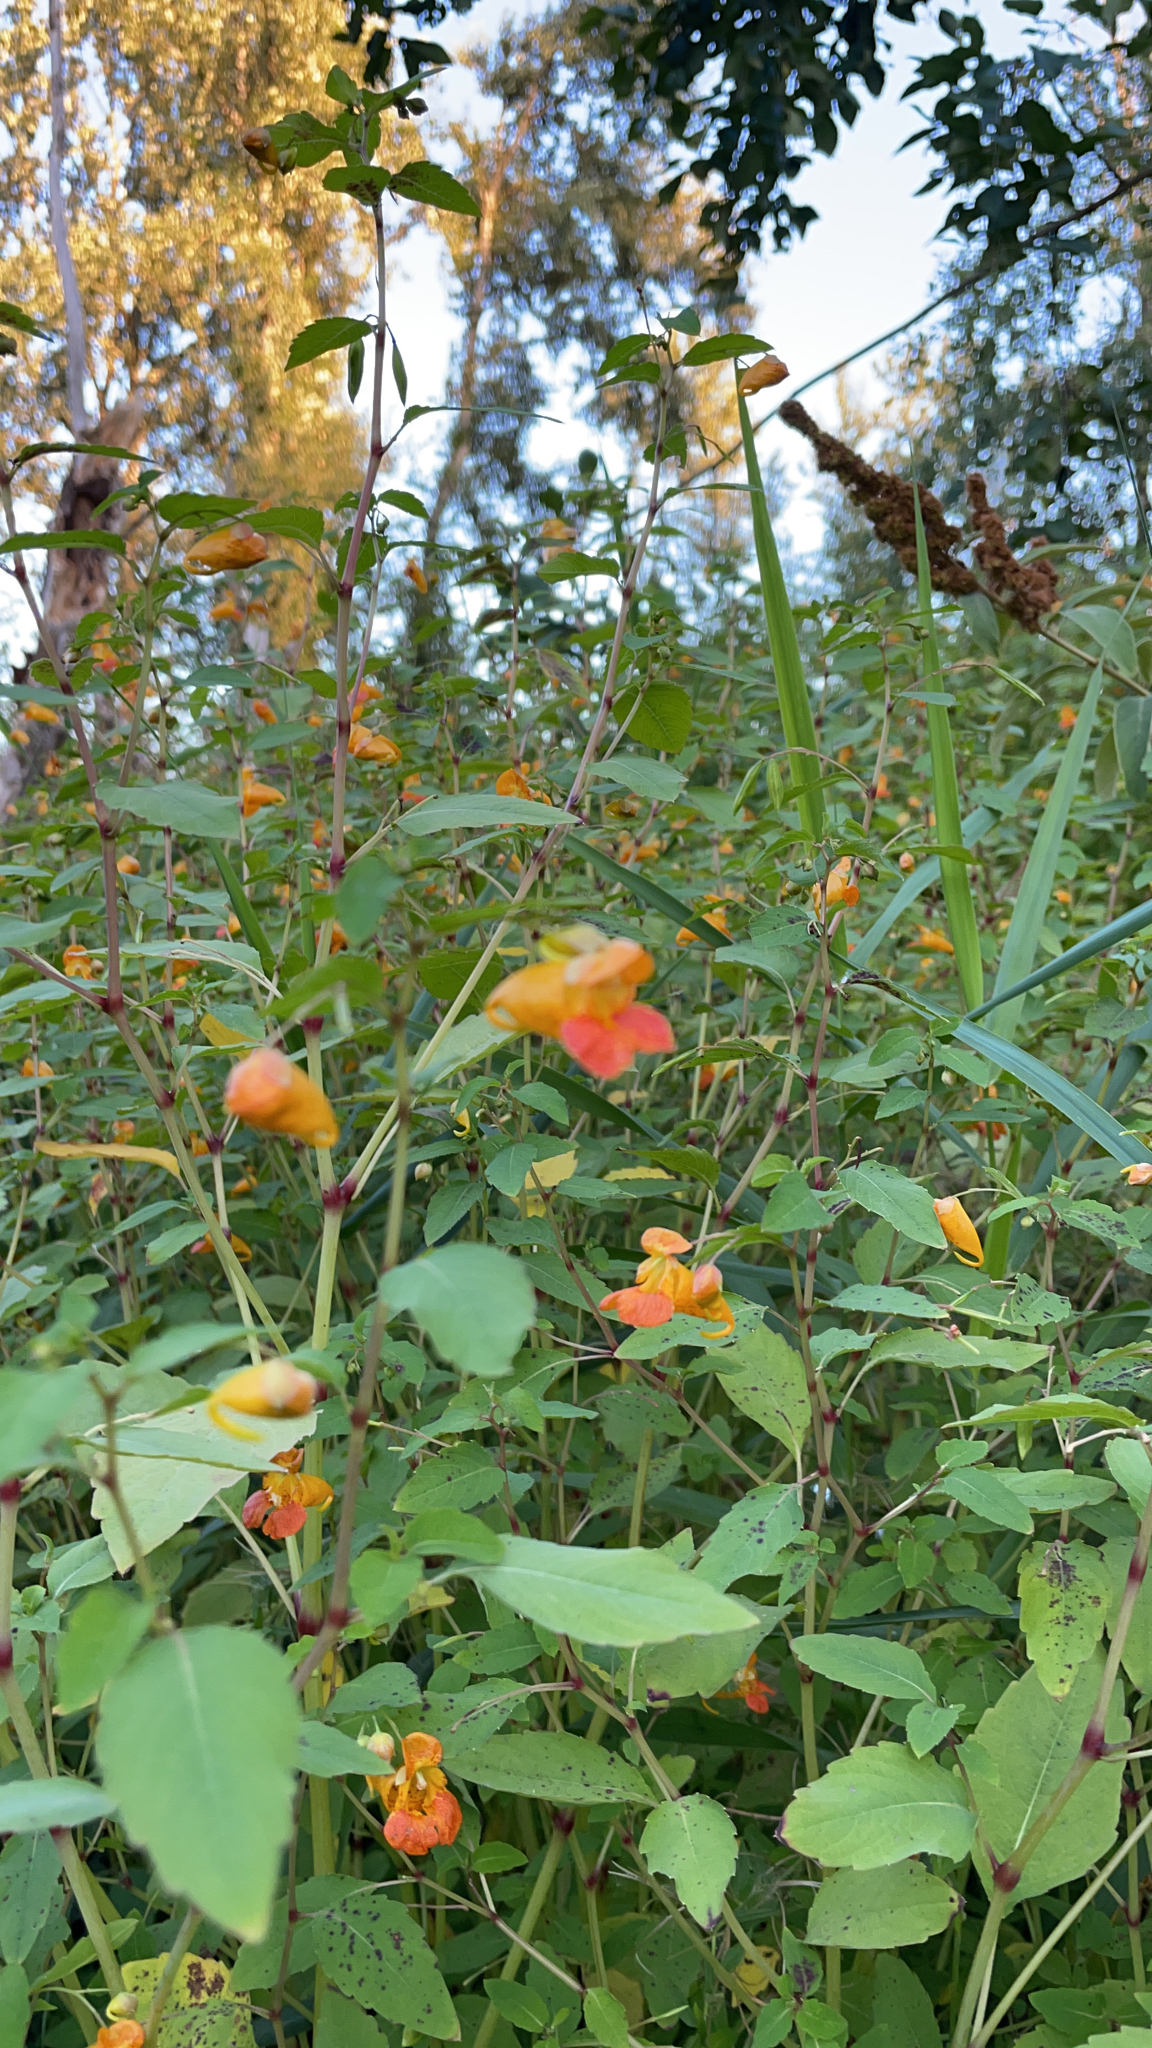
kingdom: Plantae
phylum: Tracheophyta
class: Magnoliopsida
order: Ericales
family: Balsaminaceae
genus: Impatiens
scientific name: Impatiens capensis
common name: Orange balsam
